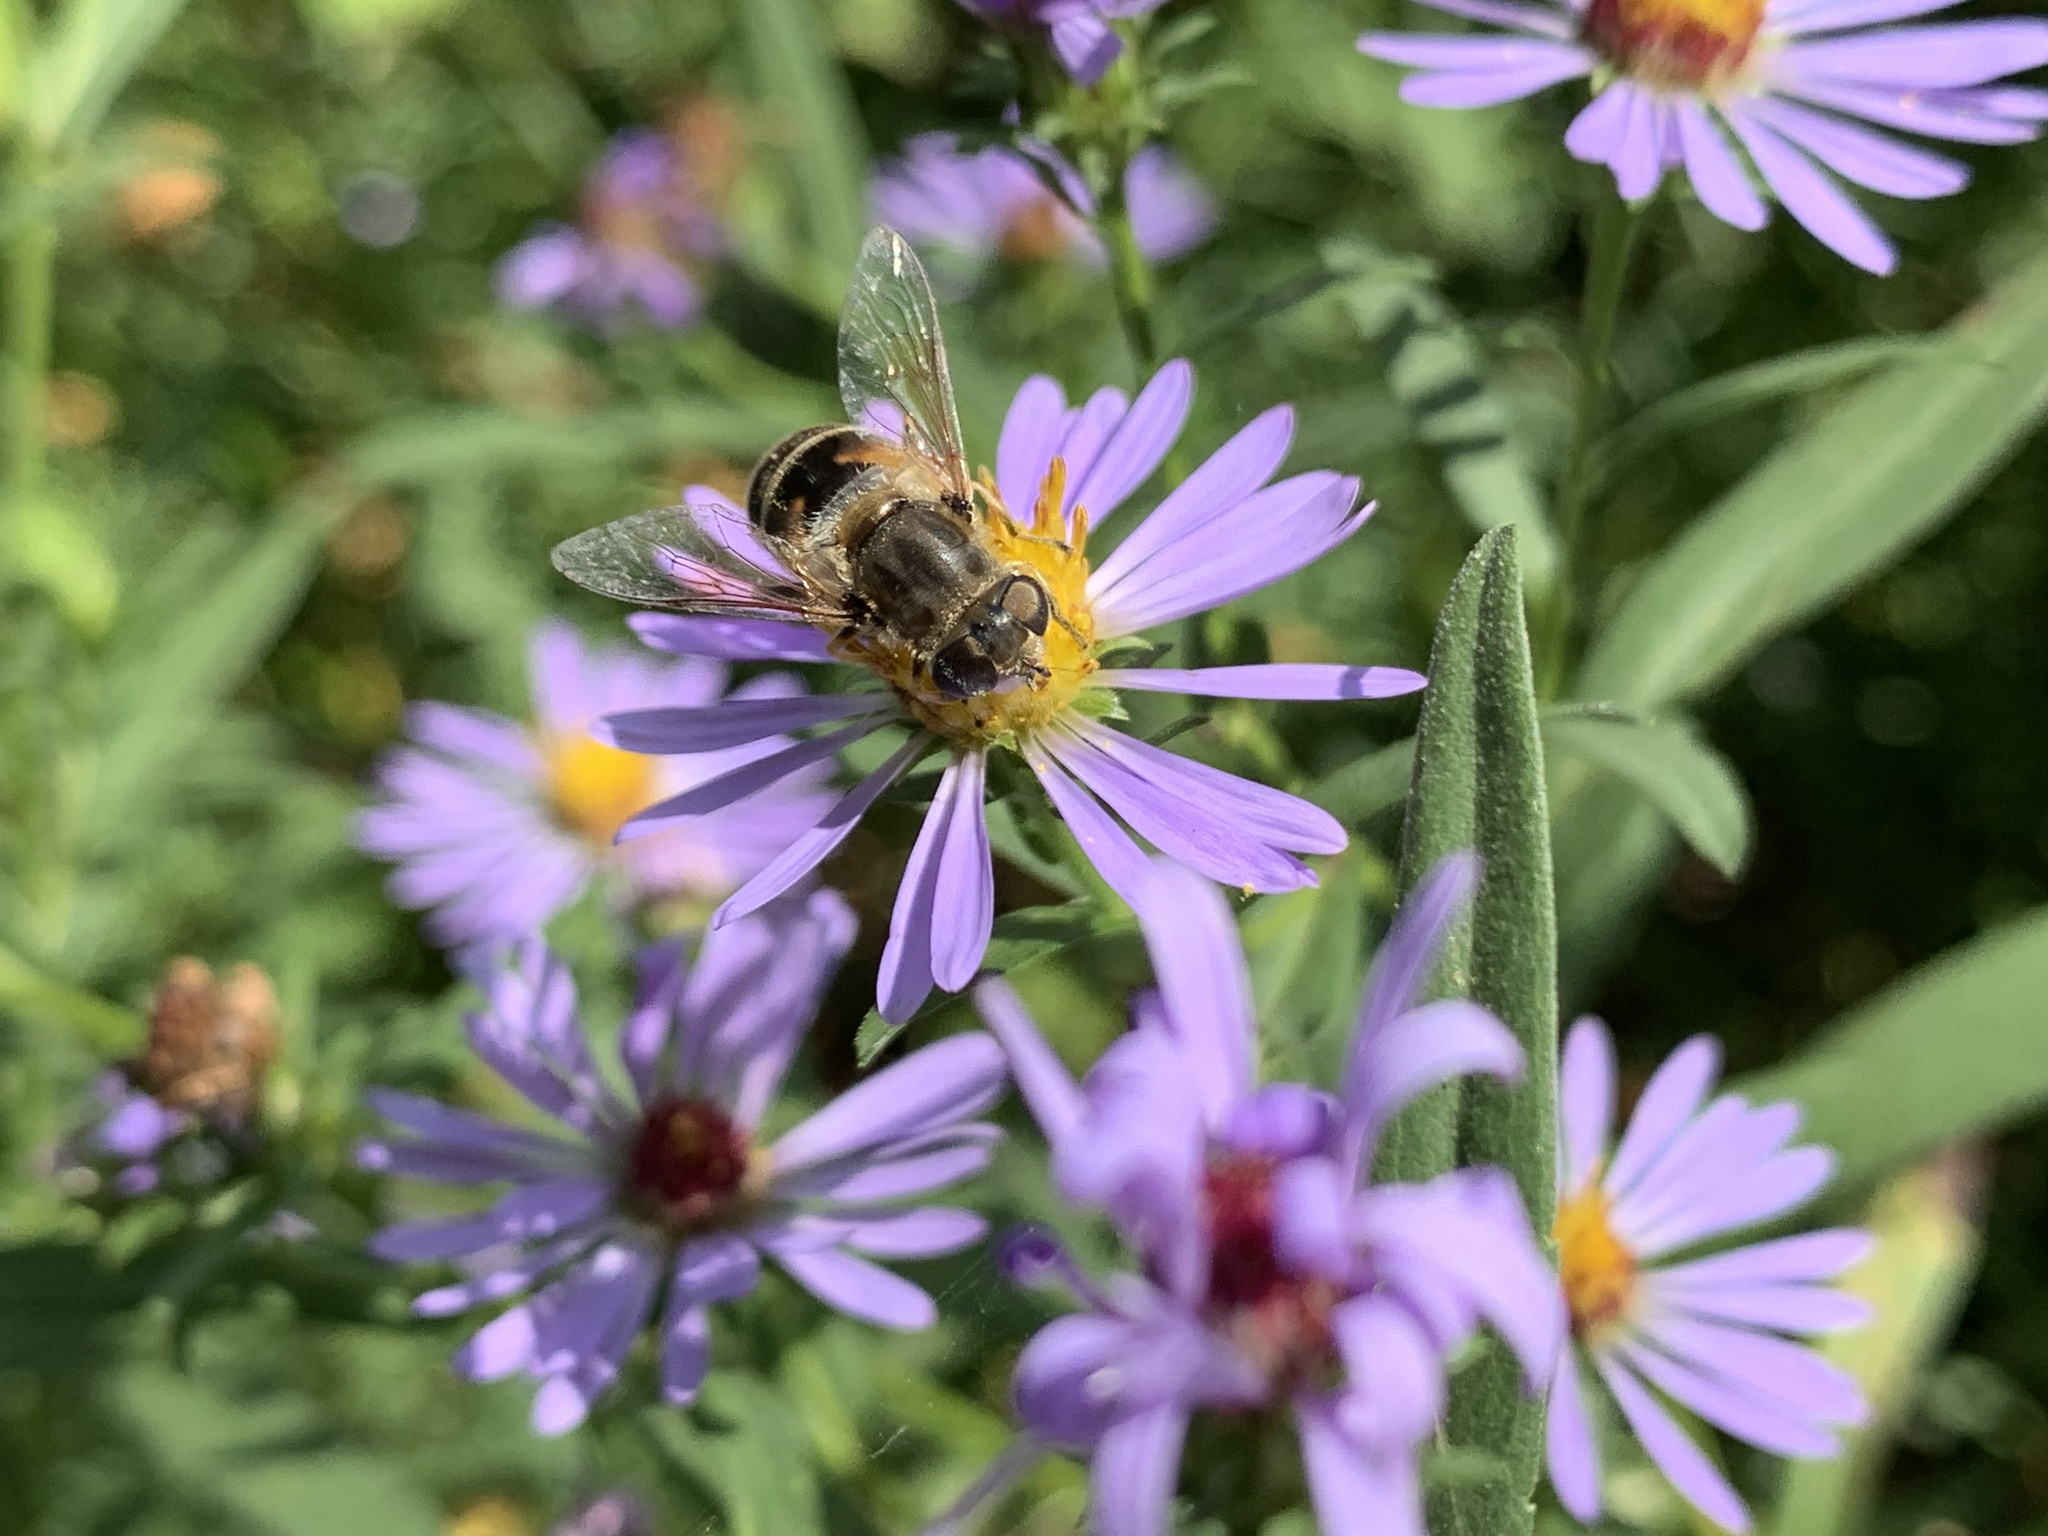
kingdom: Animalia
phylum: Arthropoda
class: Insecta
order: Diptera
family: Syrphidae
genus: Eristalis
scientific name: Eristalis arbustorum
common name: Hover fly
